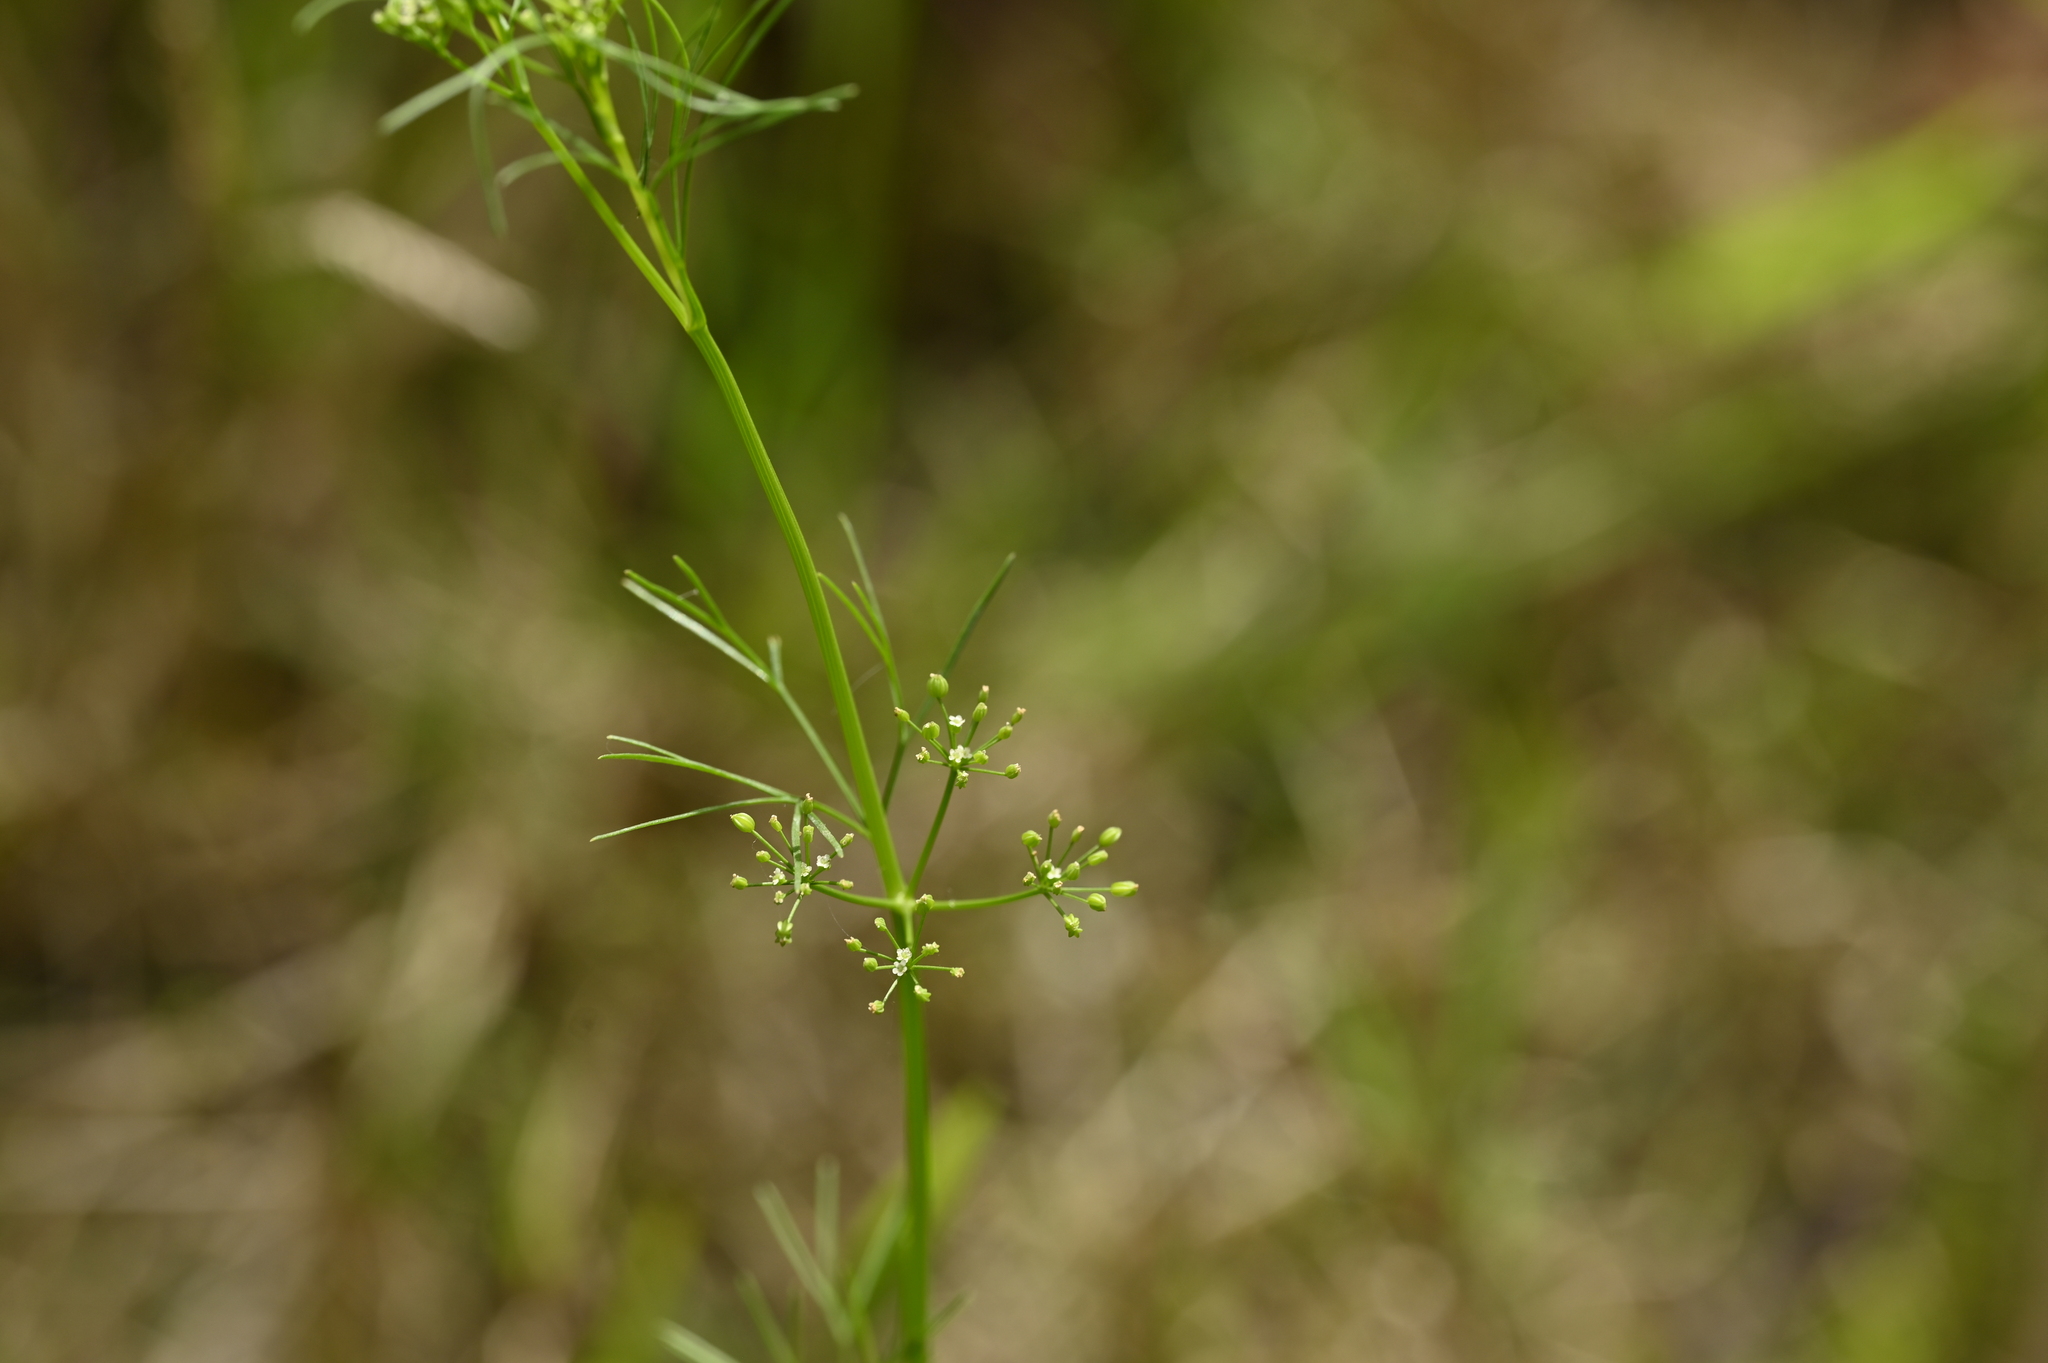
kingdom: Plantae
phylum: Tracheophyta
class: Magnoliopsida
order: Apiales
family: Apiaceae
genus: Cyclospermum
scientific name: Cyclospermum leptophyllum
